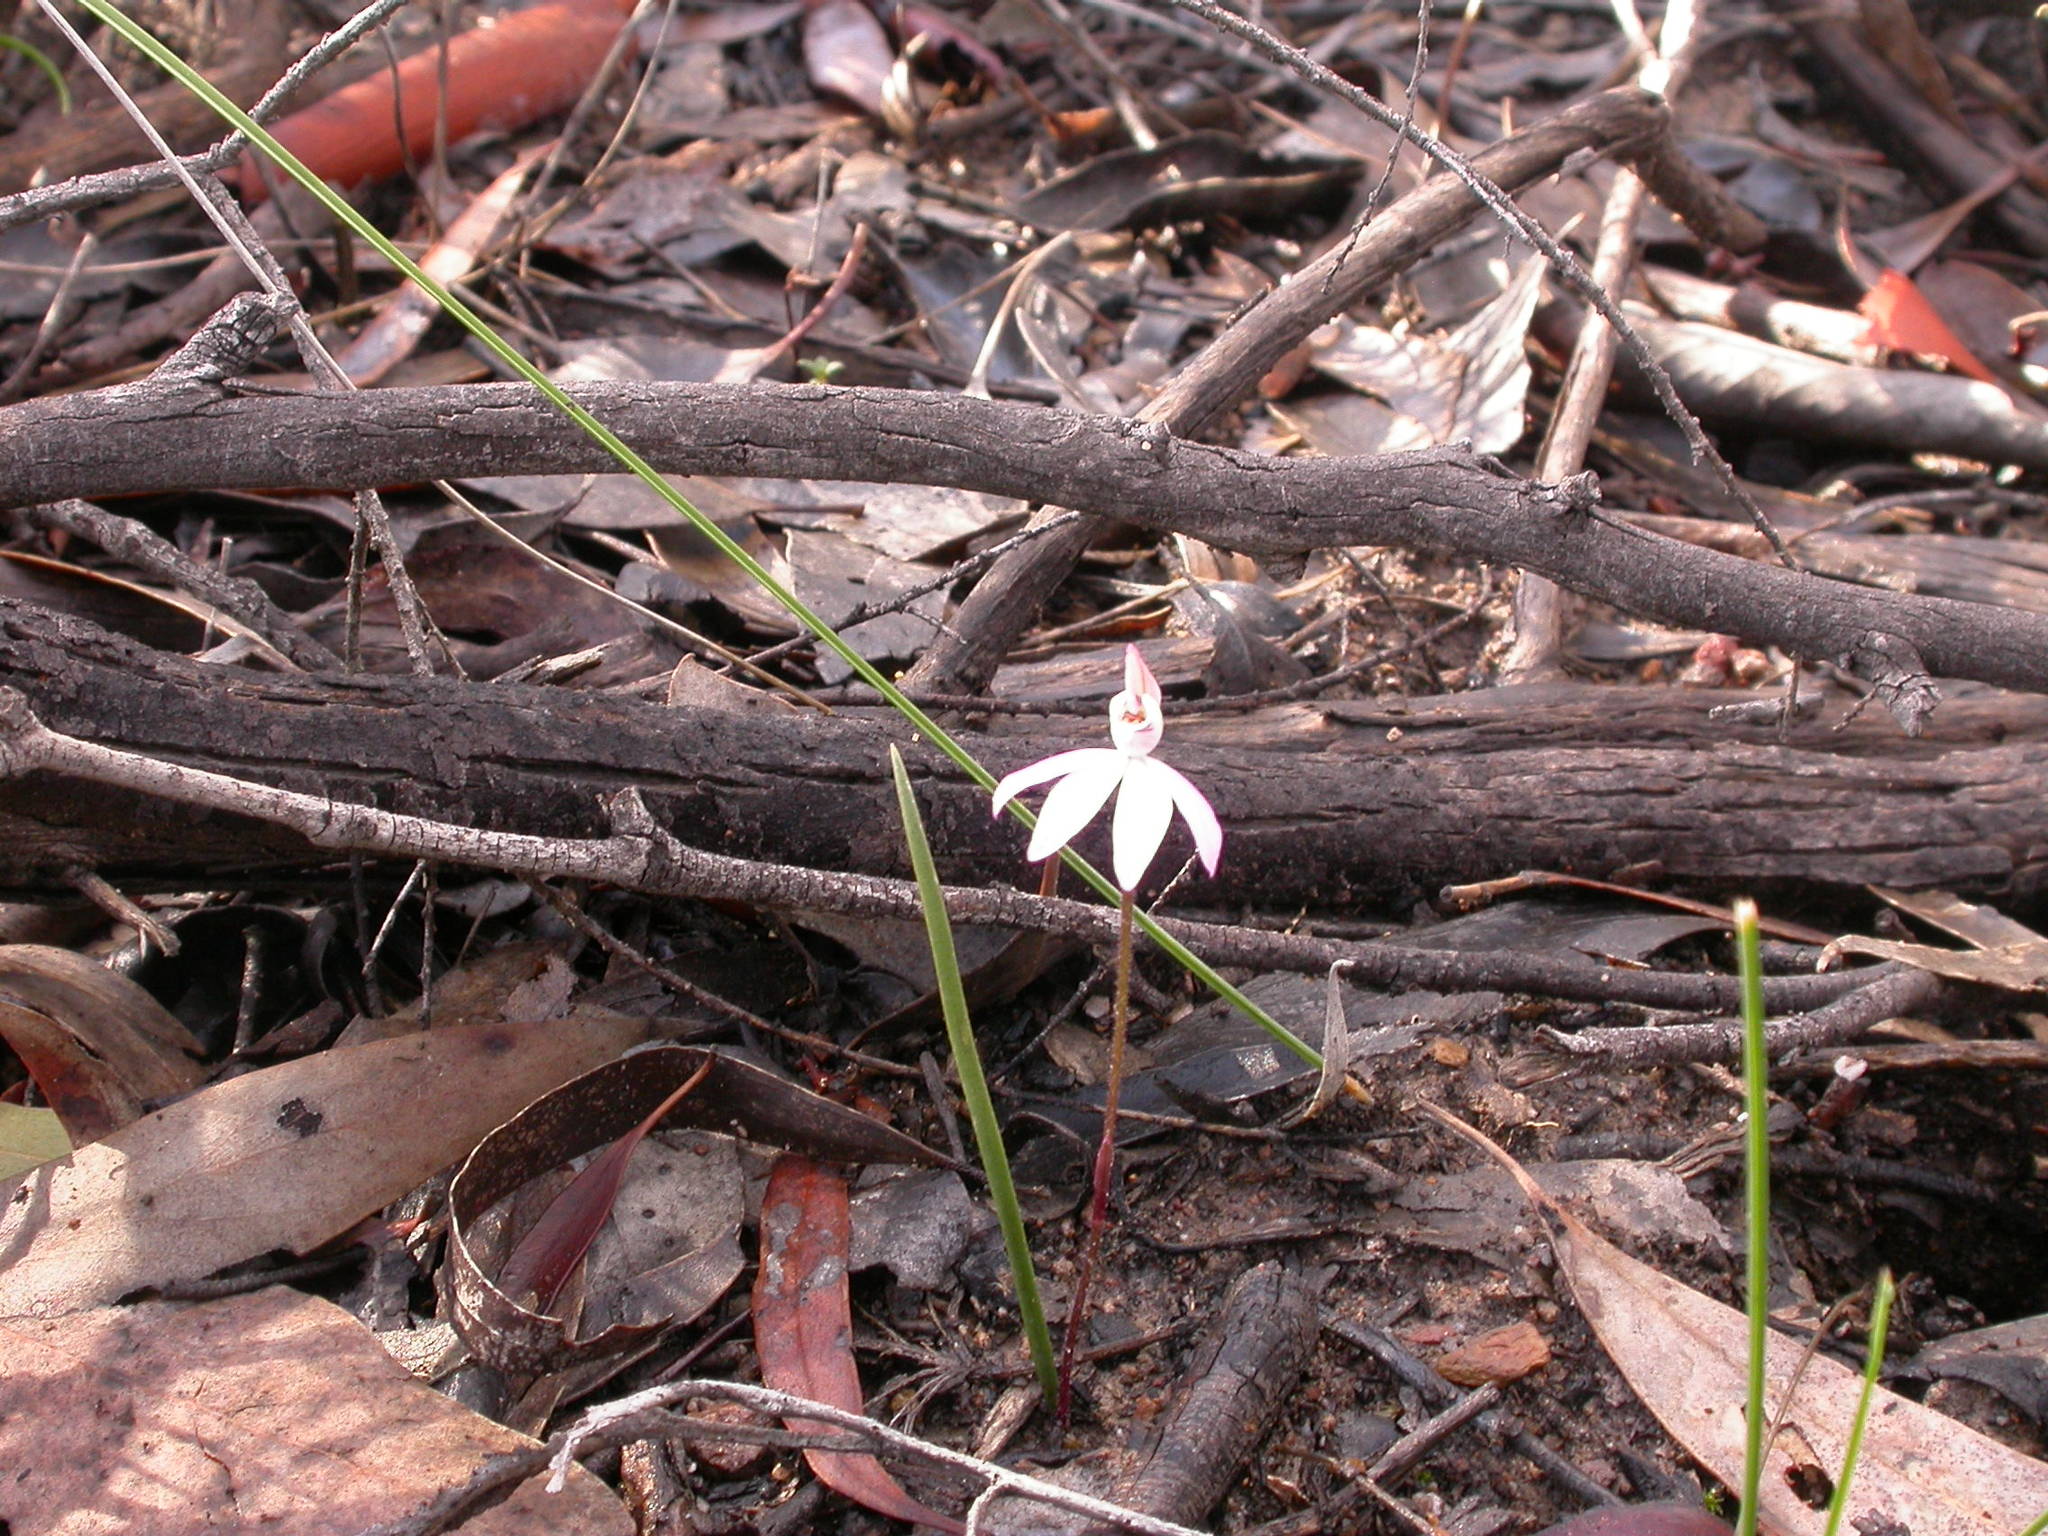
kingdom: Plantae
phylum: Tracheophyta
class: Liliopsida
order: Asparagales
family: Orchidaceae
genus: Caladenia
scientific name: Caladenia fuscata
